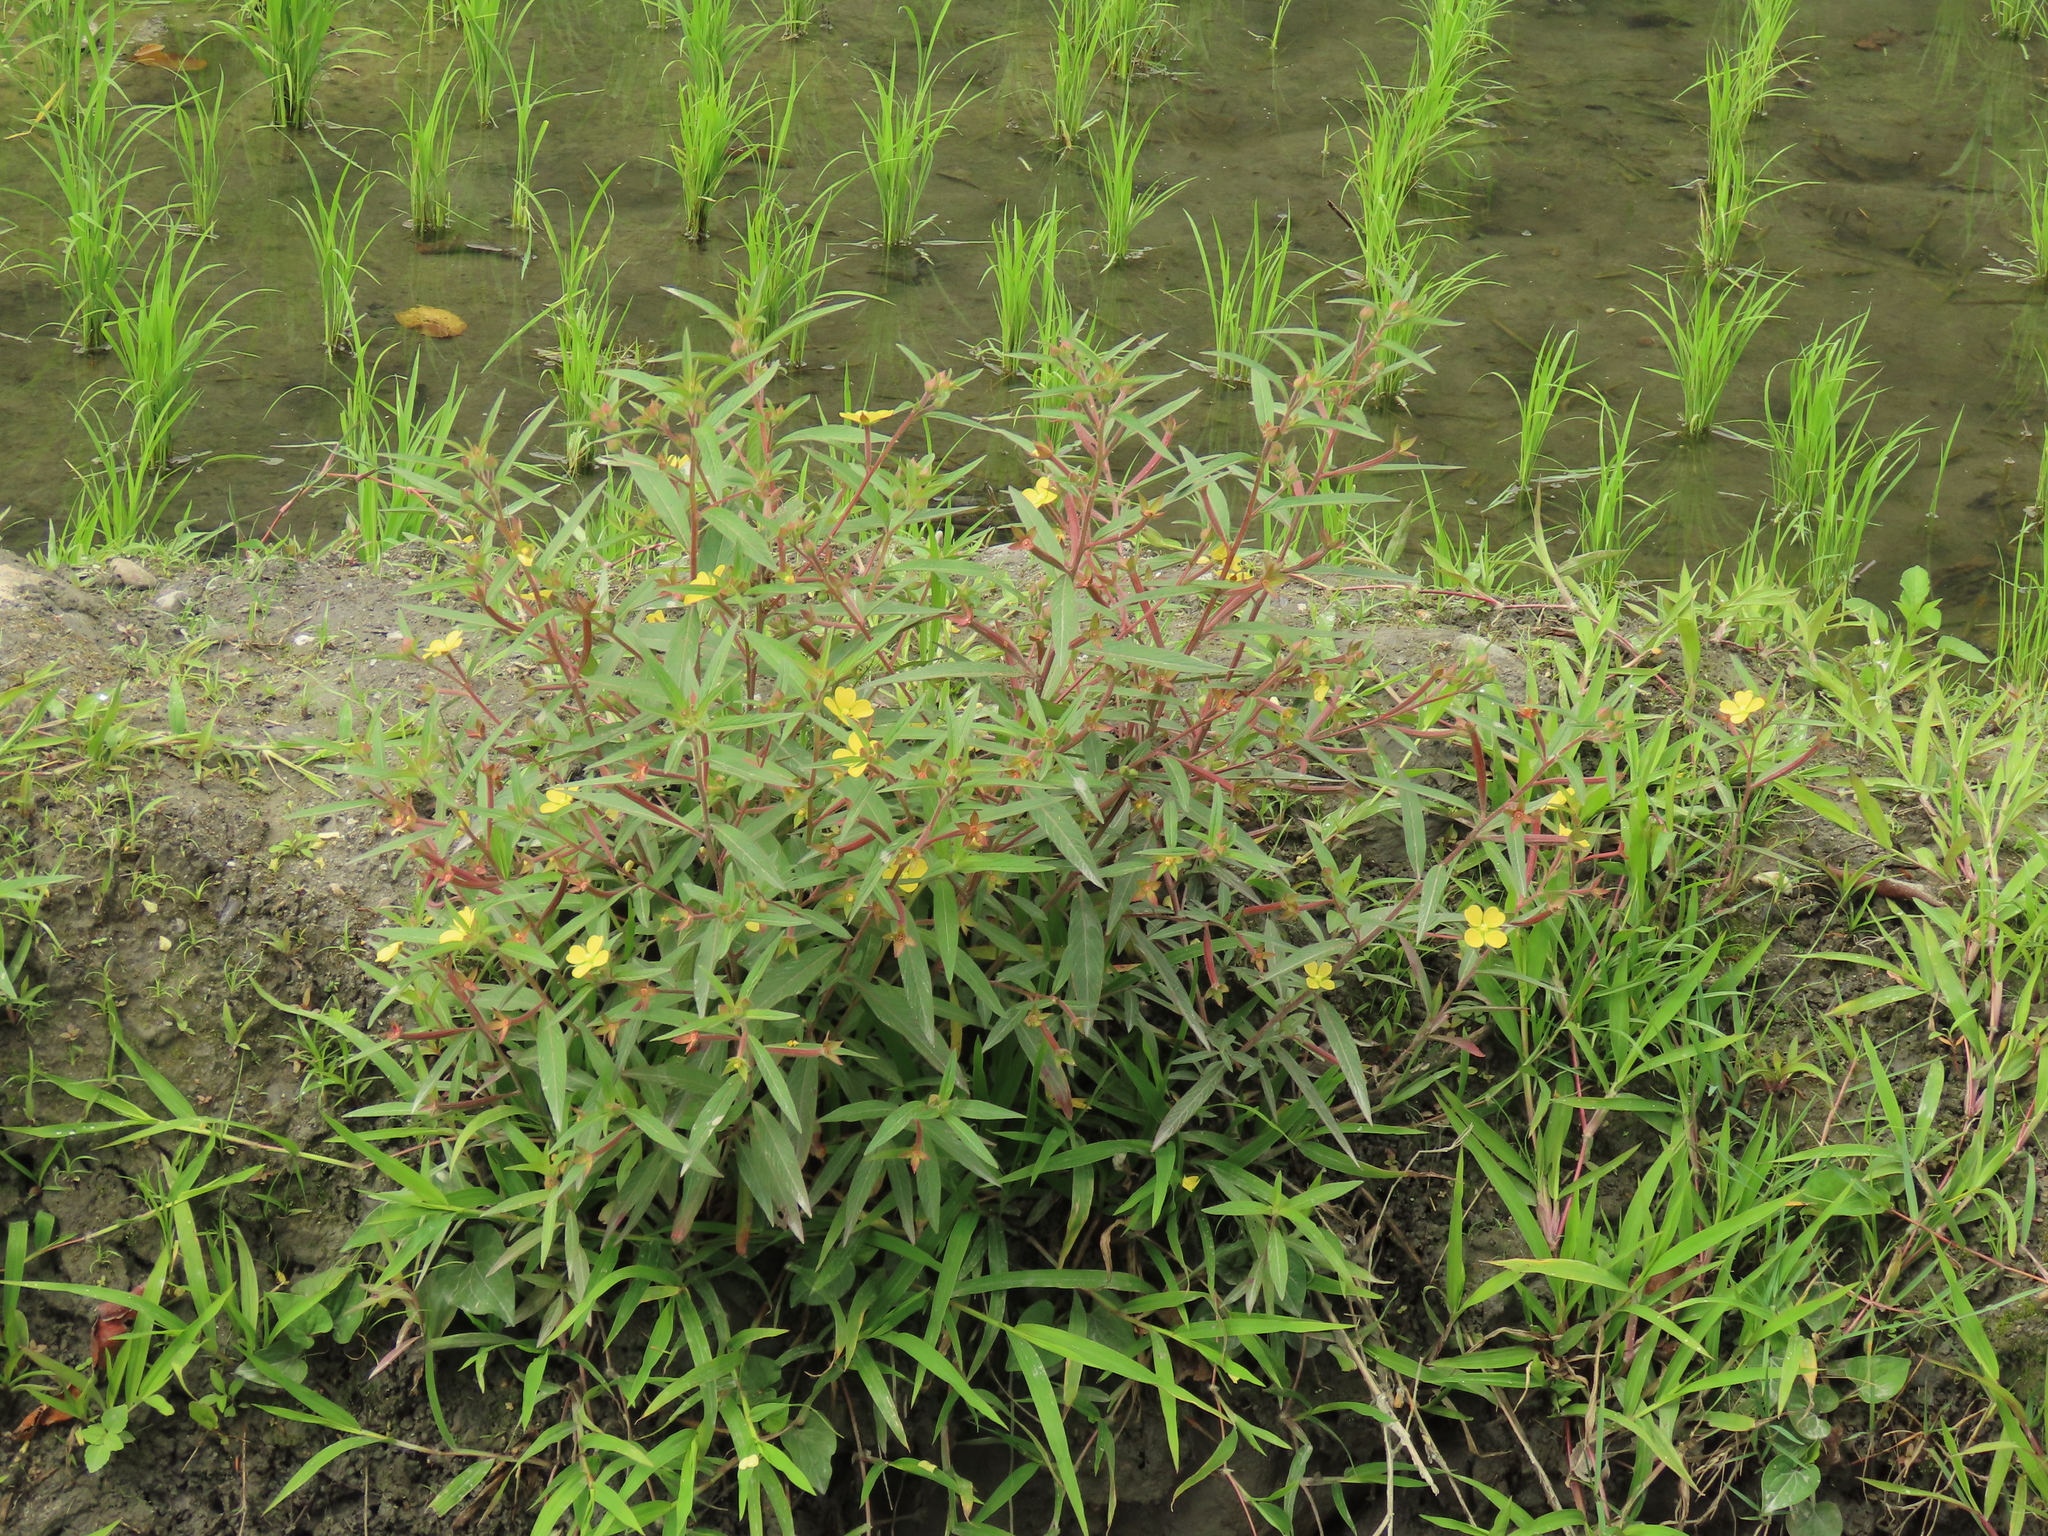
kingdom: Plantae
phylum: Tracheophyta
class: Magnoliopsida
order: Myrtales
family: Onagraceae
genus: Ludwigia
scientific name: Ludwigia octovalvis
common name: Water-primrose
